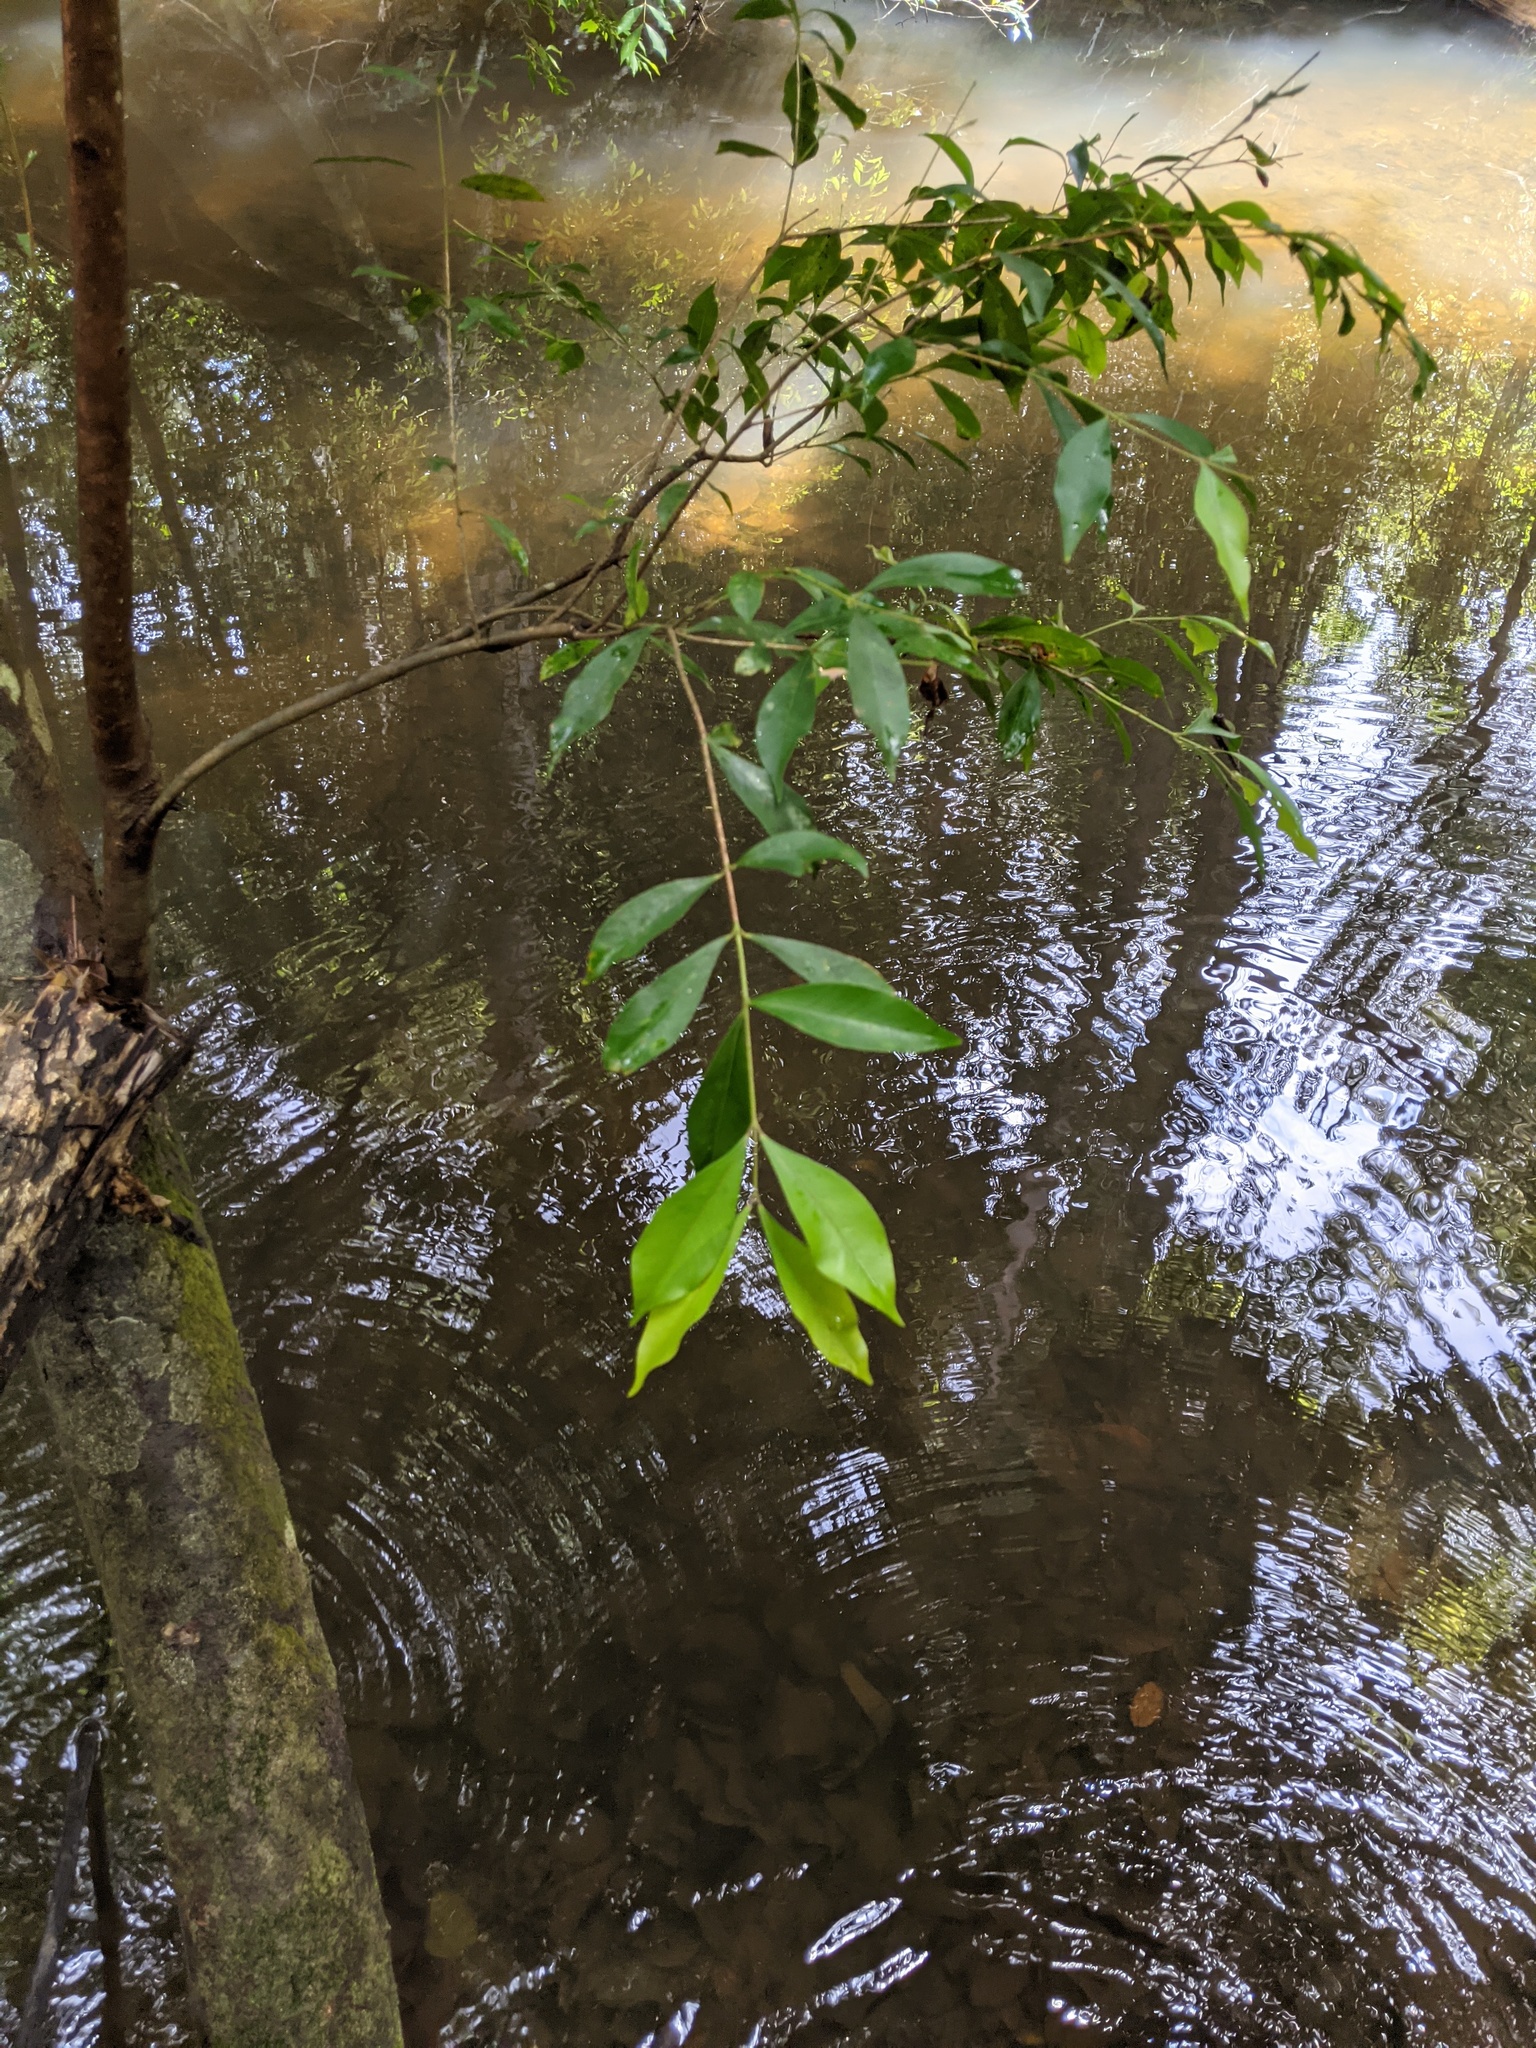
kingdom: Plantae
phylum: Tracheophyta
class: Magnoliopsida
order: Myrtales
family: Myrtaceae
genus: Syzygium
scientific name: Syzygium smithii
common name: Lilly-pilly
